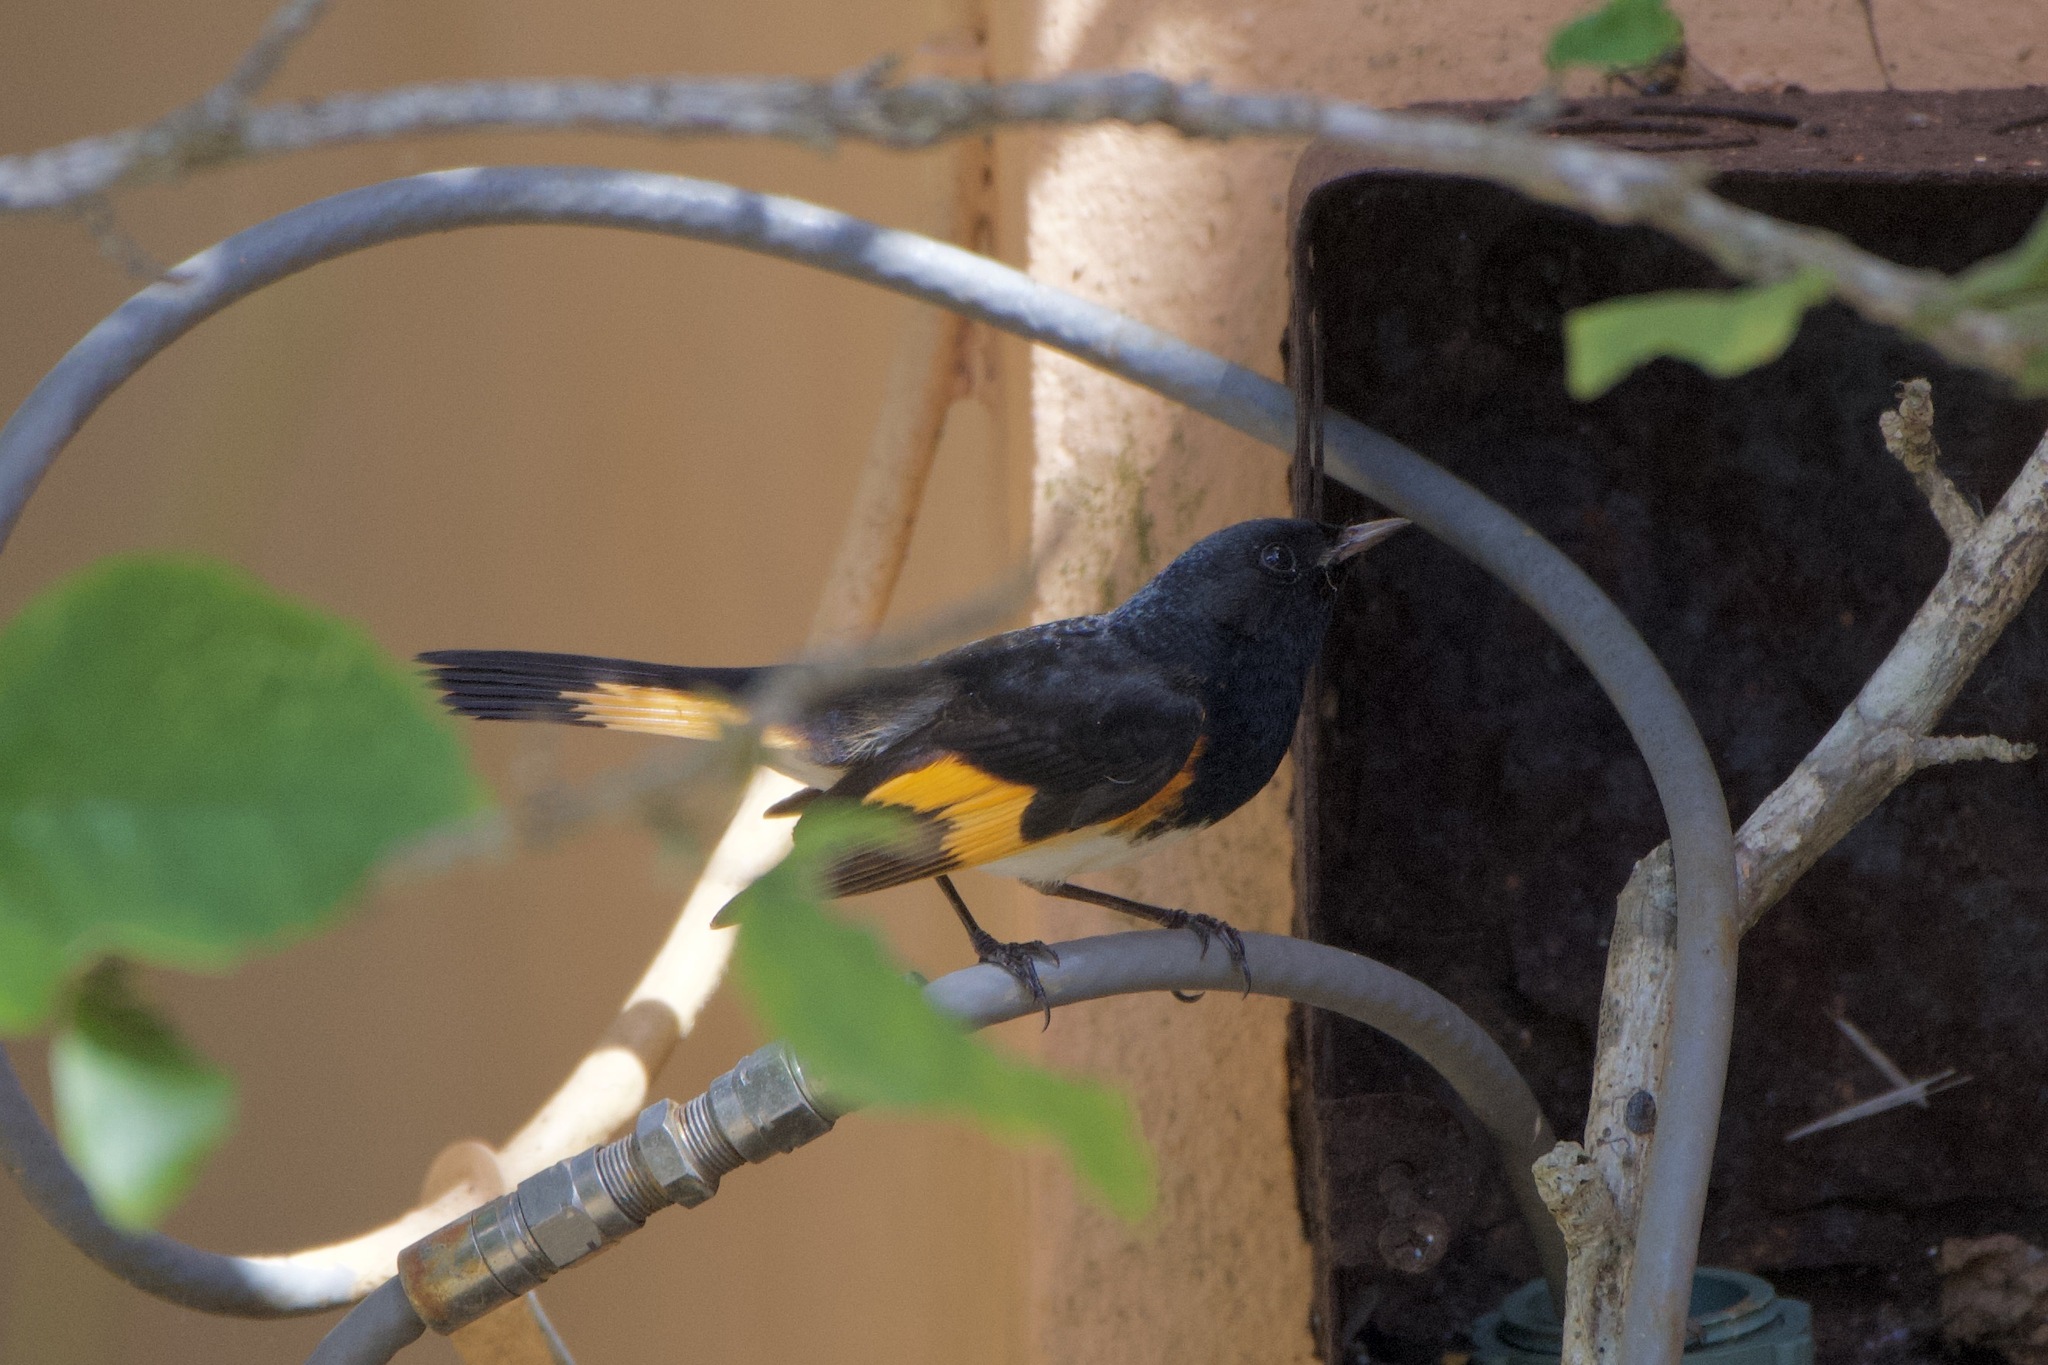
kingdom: Animalia
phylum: Chordata
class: Aves
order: Passeriformes
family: Parulidae
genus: Setophaga
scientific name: Setophaga ruticilla
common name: American redstart
